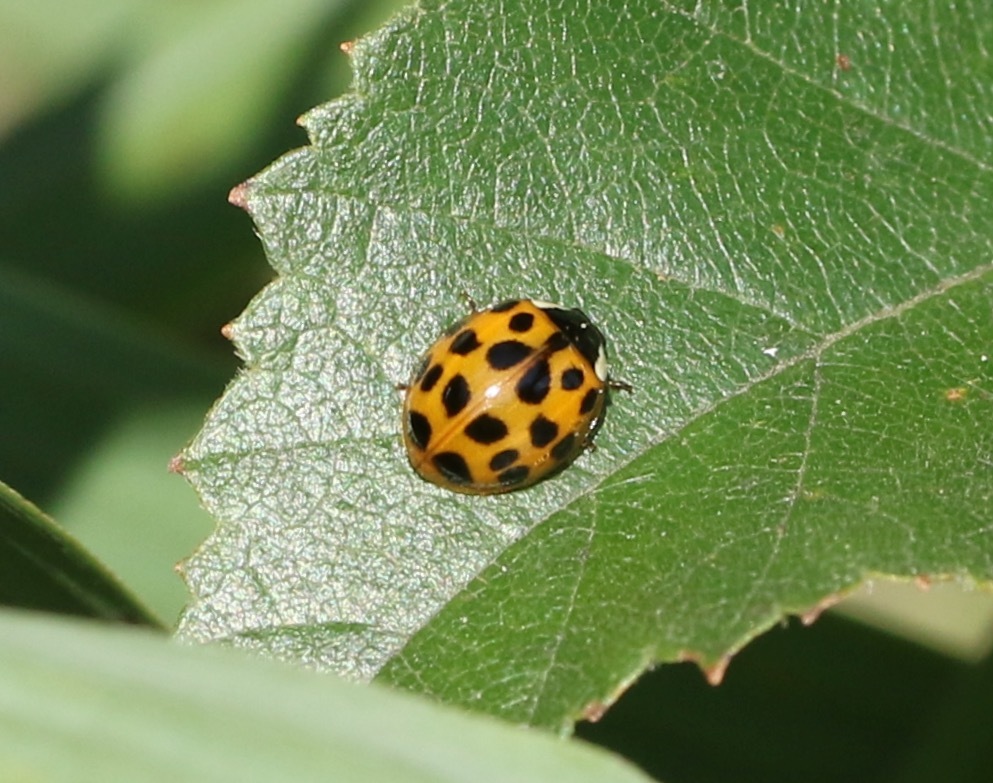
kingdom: Animalia
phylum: Arthropoda
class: Insecta
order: Coleoptera
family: Coccinellidae
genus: Harmonia
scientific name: Harmonia axyridis
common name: Harlequin ladybird
